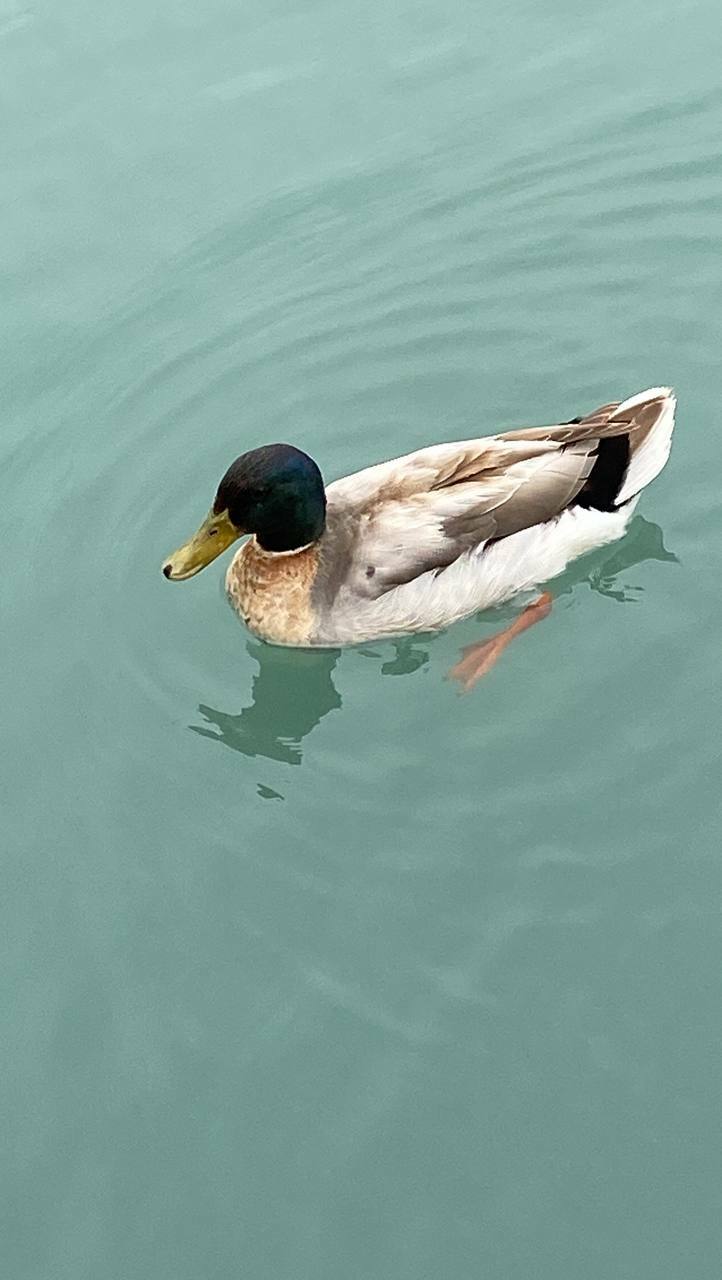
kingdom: Animalia
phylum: Chordata
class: Aves
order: Anseriformes
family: Anatidae
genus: Anas
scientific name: Anas platyrhynchos
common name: Mallard
